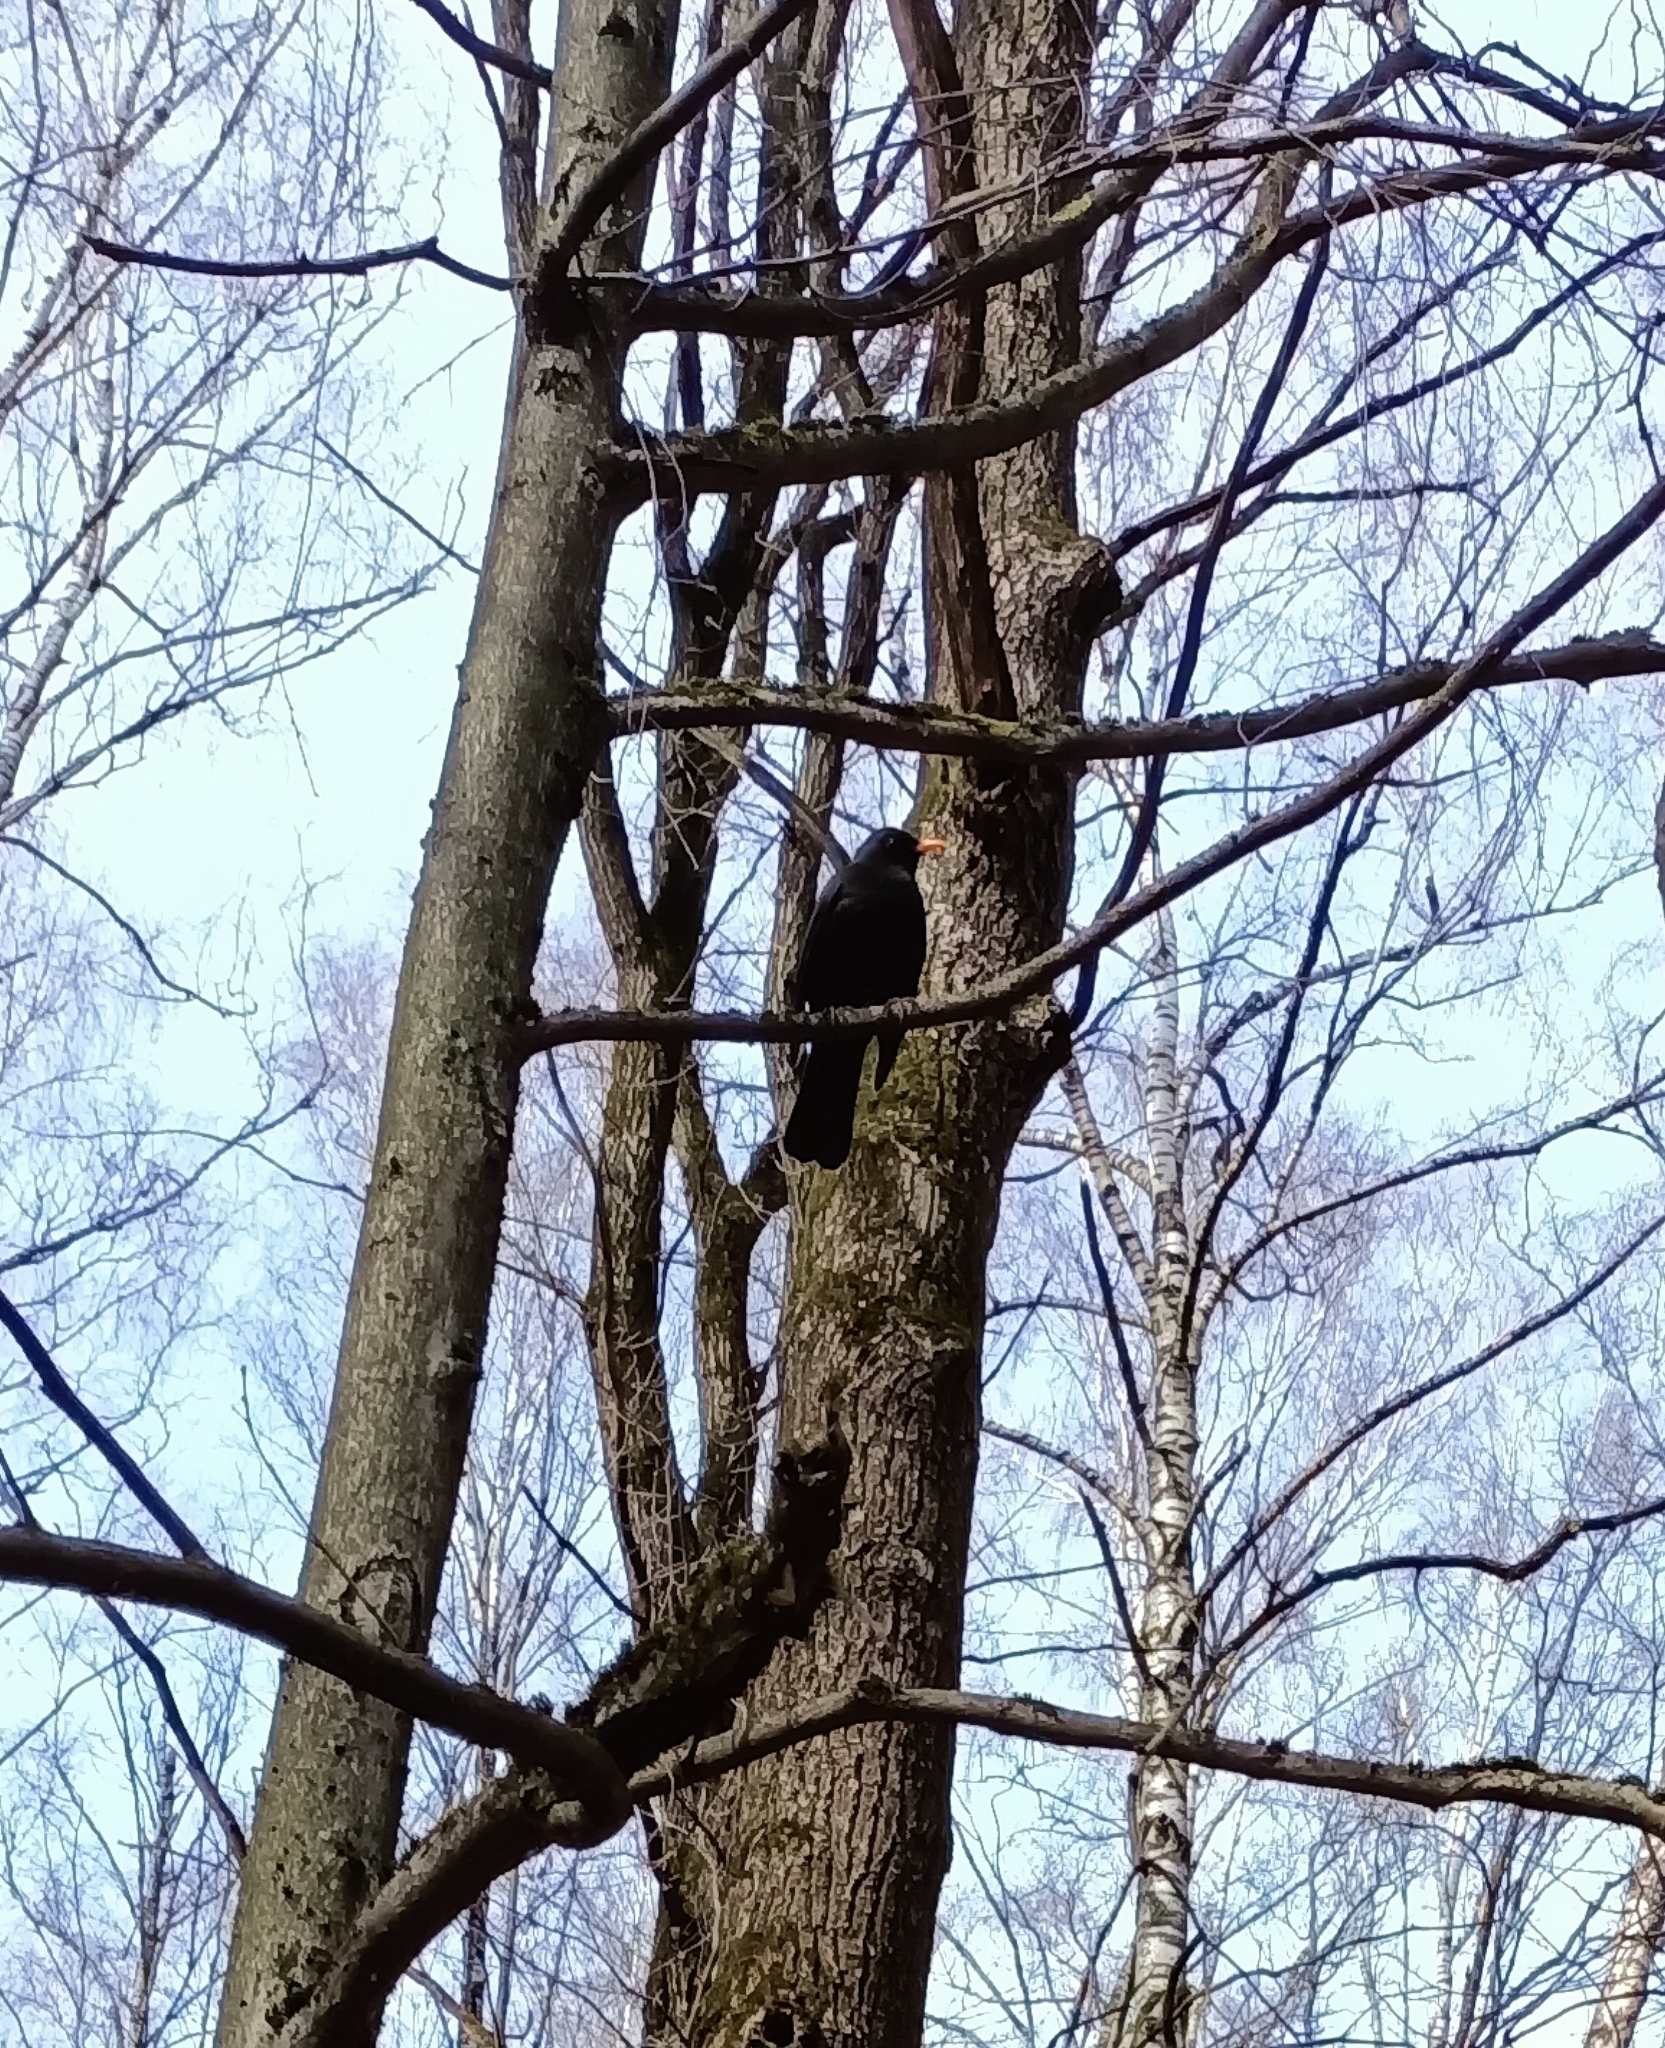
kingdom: Animalia
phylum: Chordata
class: Aves
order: Passeriformes
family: Turdidae
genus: Turdus
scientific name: Turdus merula
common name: Common blackbird
